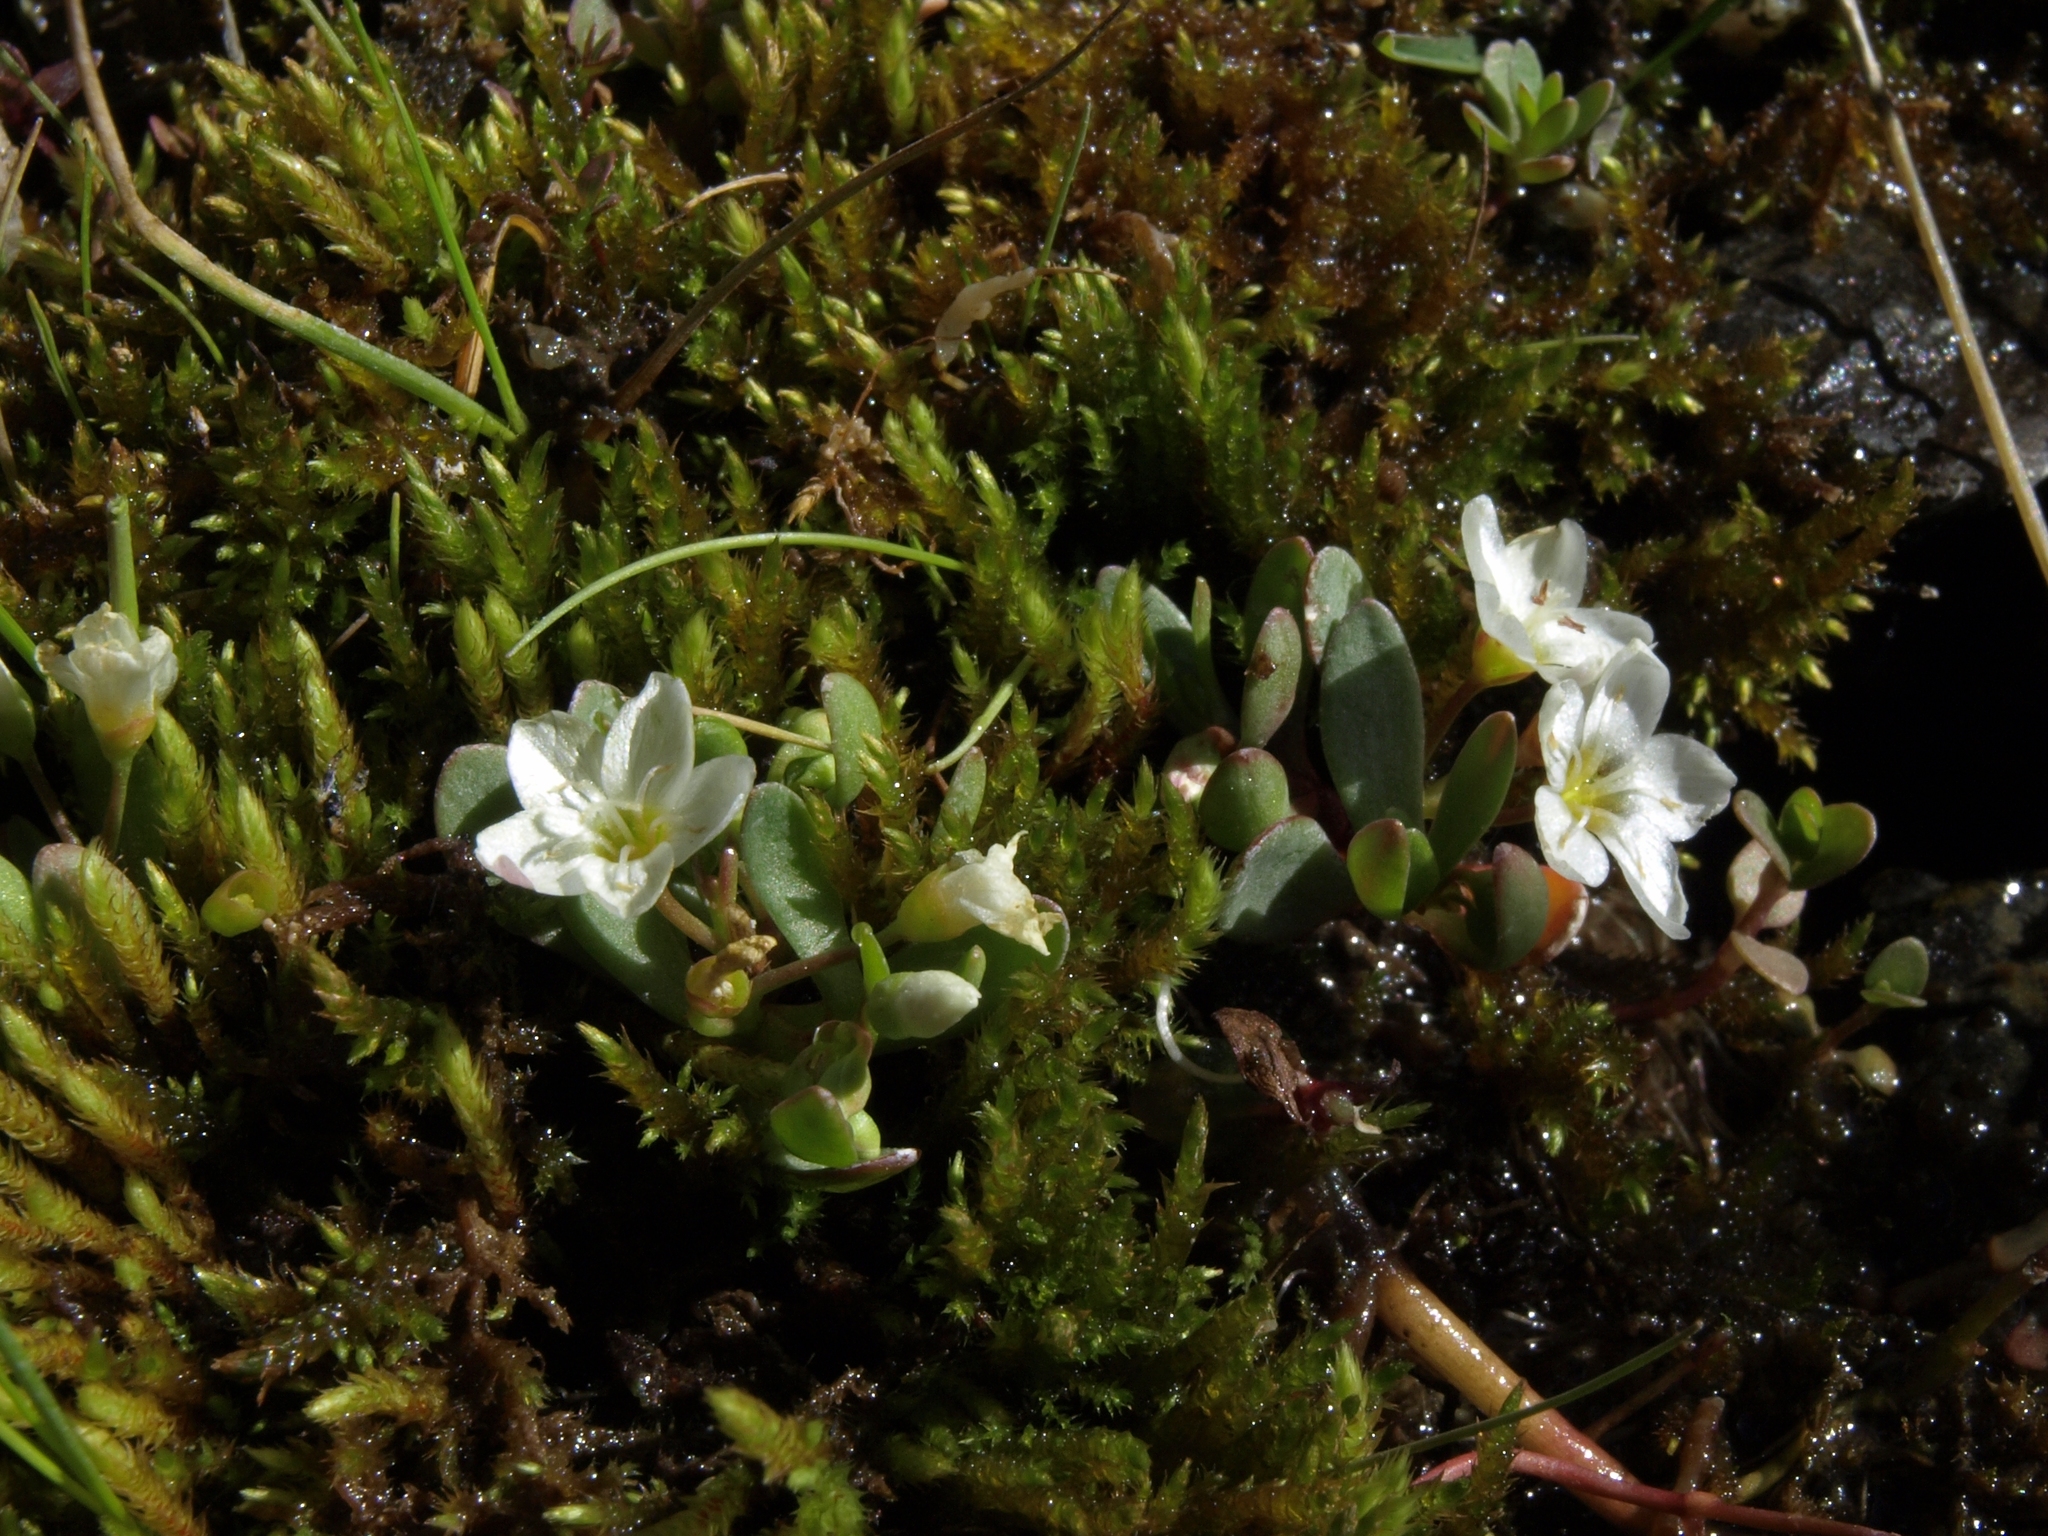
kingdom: Plantae
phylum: Tracheophyta
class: Magnoliopsida
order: Caryophyllales
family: Montiaceae
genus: Montia
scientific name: Montia chamissoi
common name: Chamisso's candyflower
